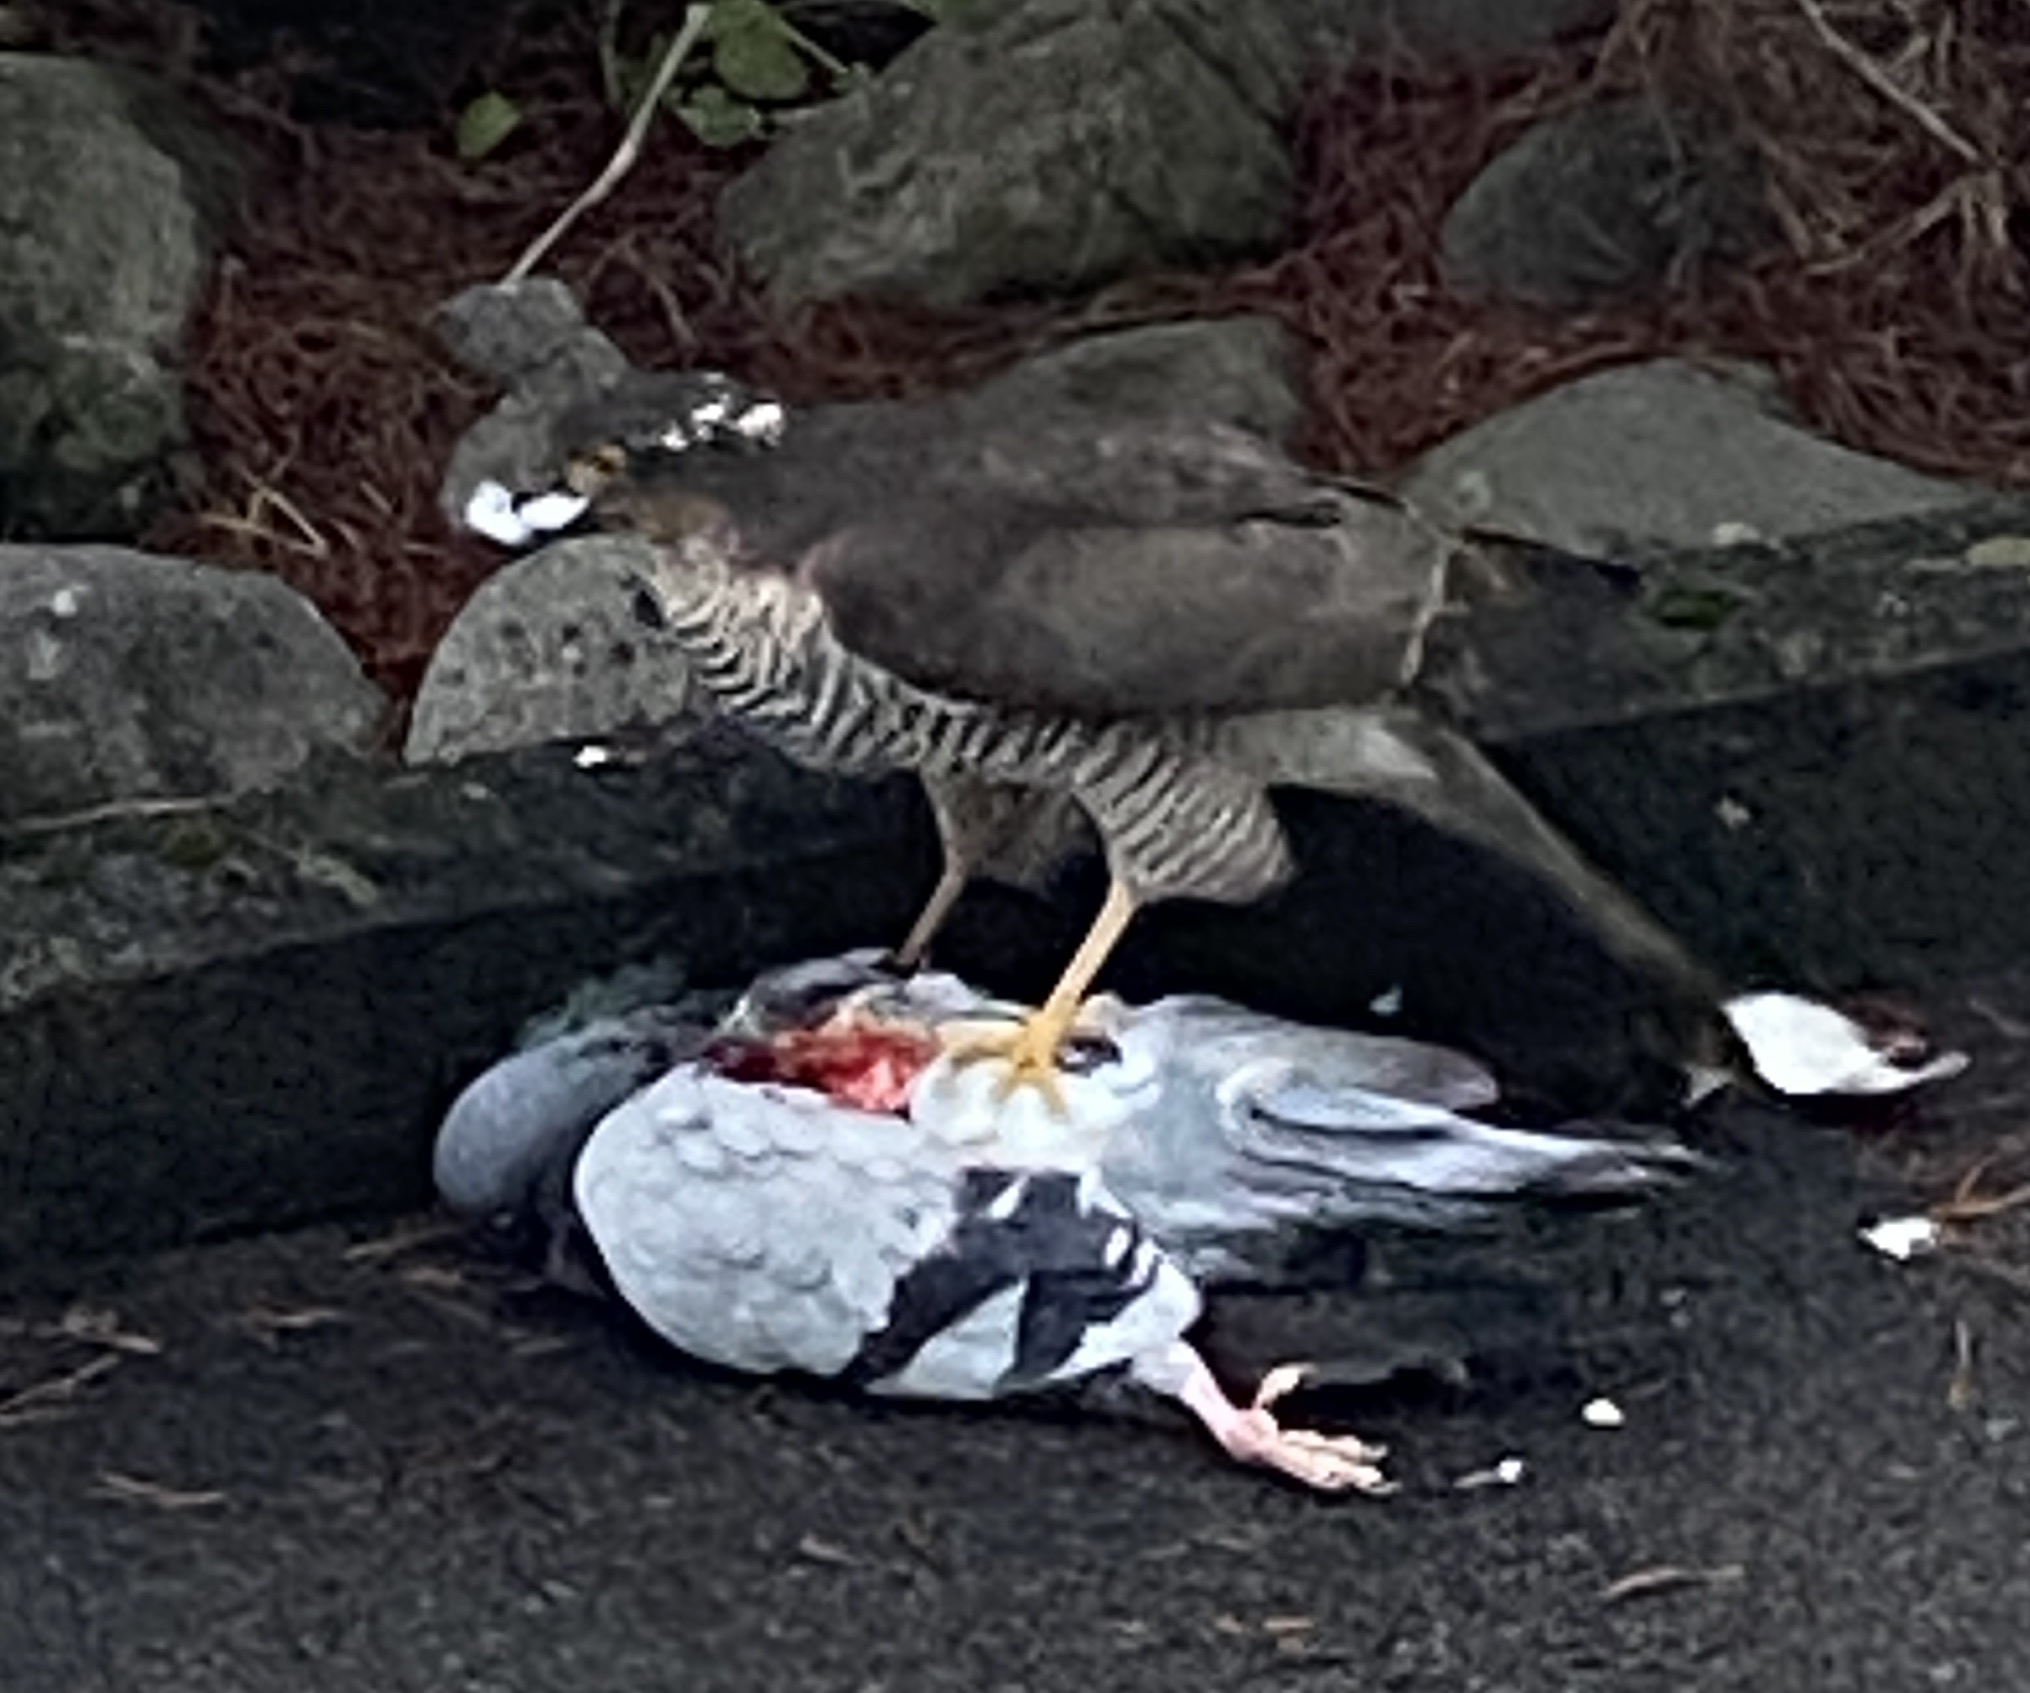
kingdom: Animalia
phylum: Chordata
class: Aves
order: Accipitriformes
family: Accipitridae
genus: Accipiter
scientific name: Accipiter nisus
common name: Eurasian sparrowhawk
